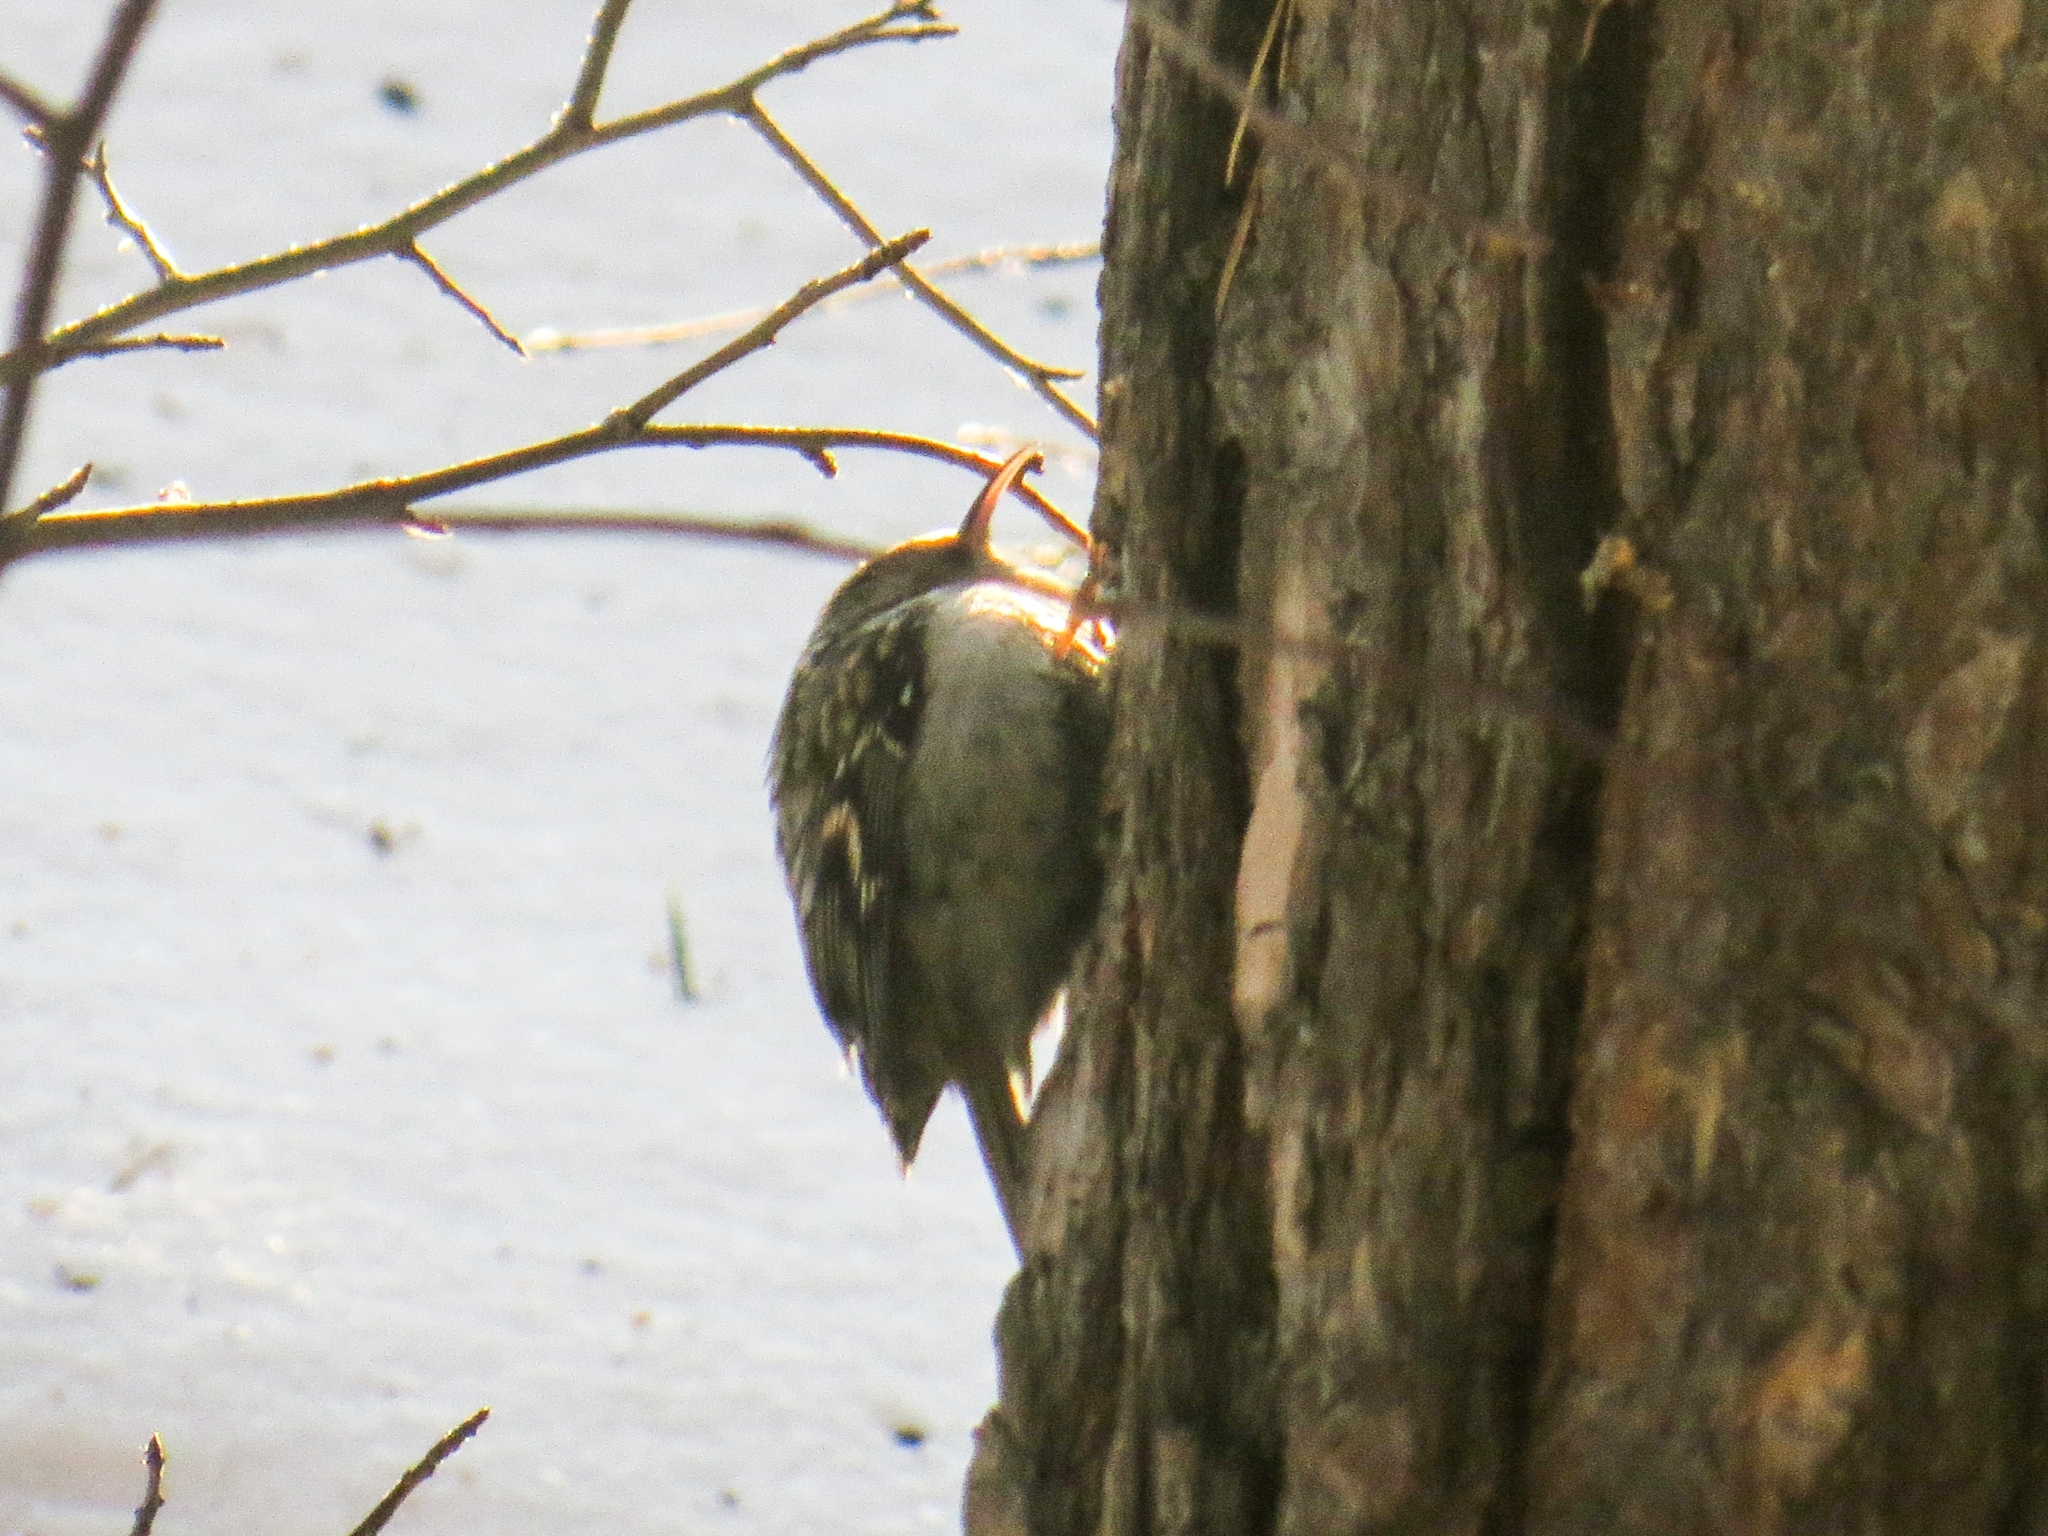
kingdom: Animalia
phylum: Chordata
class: Aves
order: Passeriformes
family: Certhiidae
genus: Certhia
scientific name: Certhia familiaris
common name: Eurasian treecreeper
